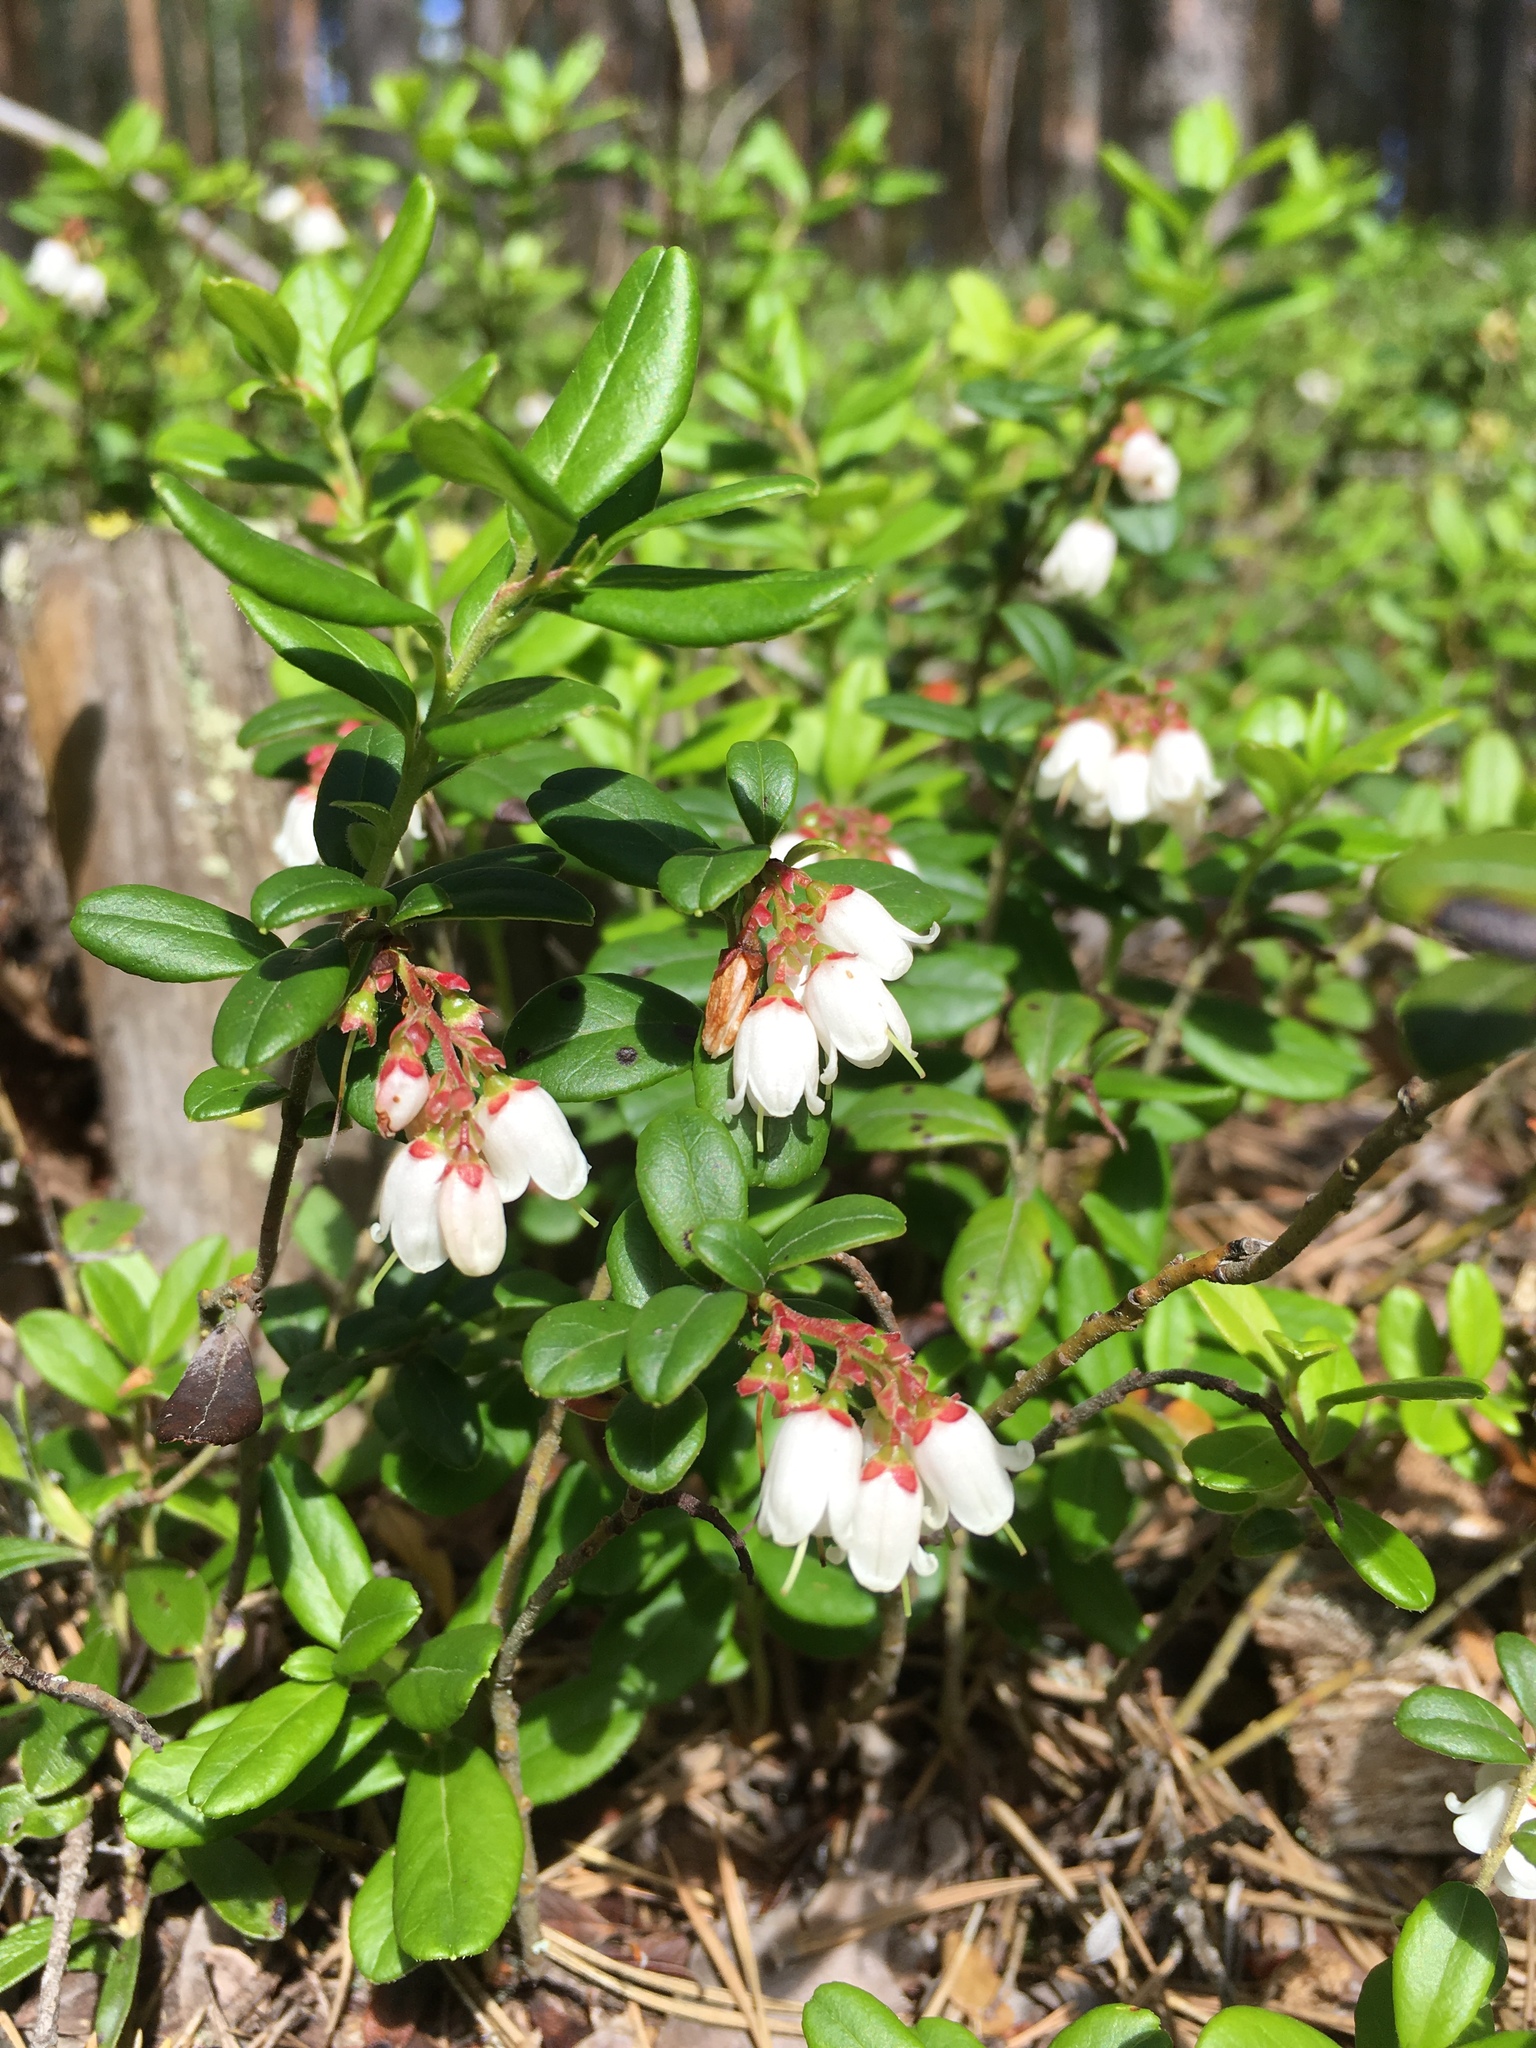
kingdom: Plantae
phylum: Tracheophyta
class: Magnoliopsida
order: Ericales
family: Ericaceae
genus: Vaccinium
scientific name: Vaccinium vitis-idaea
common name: Cowberry
